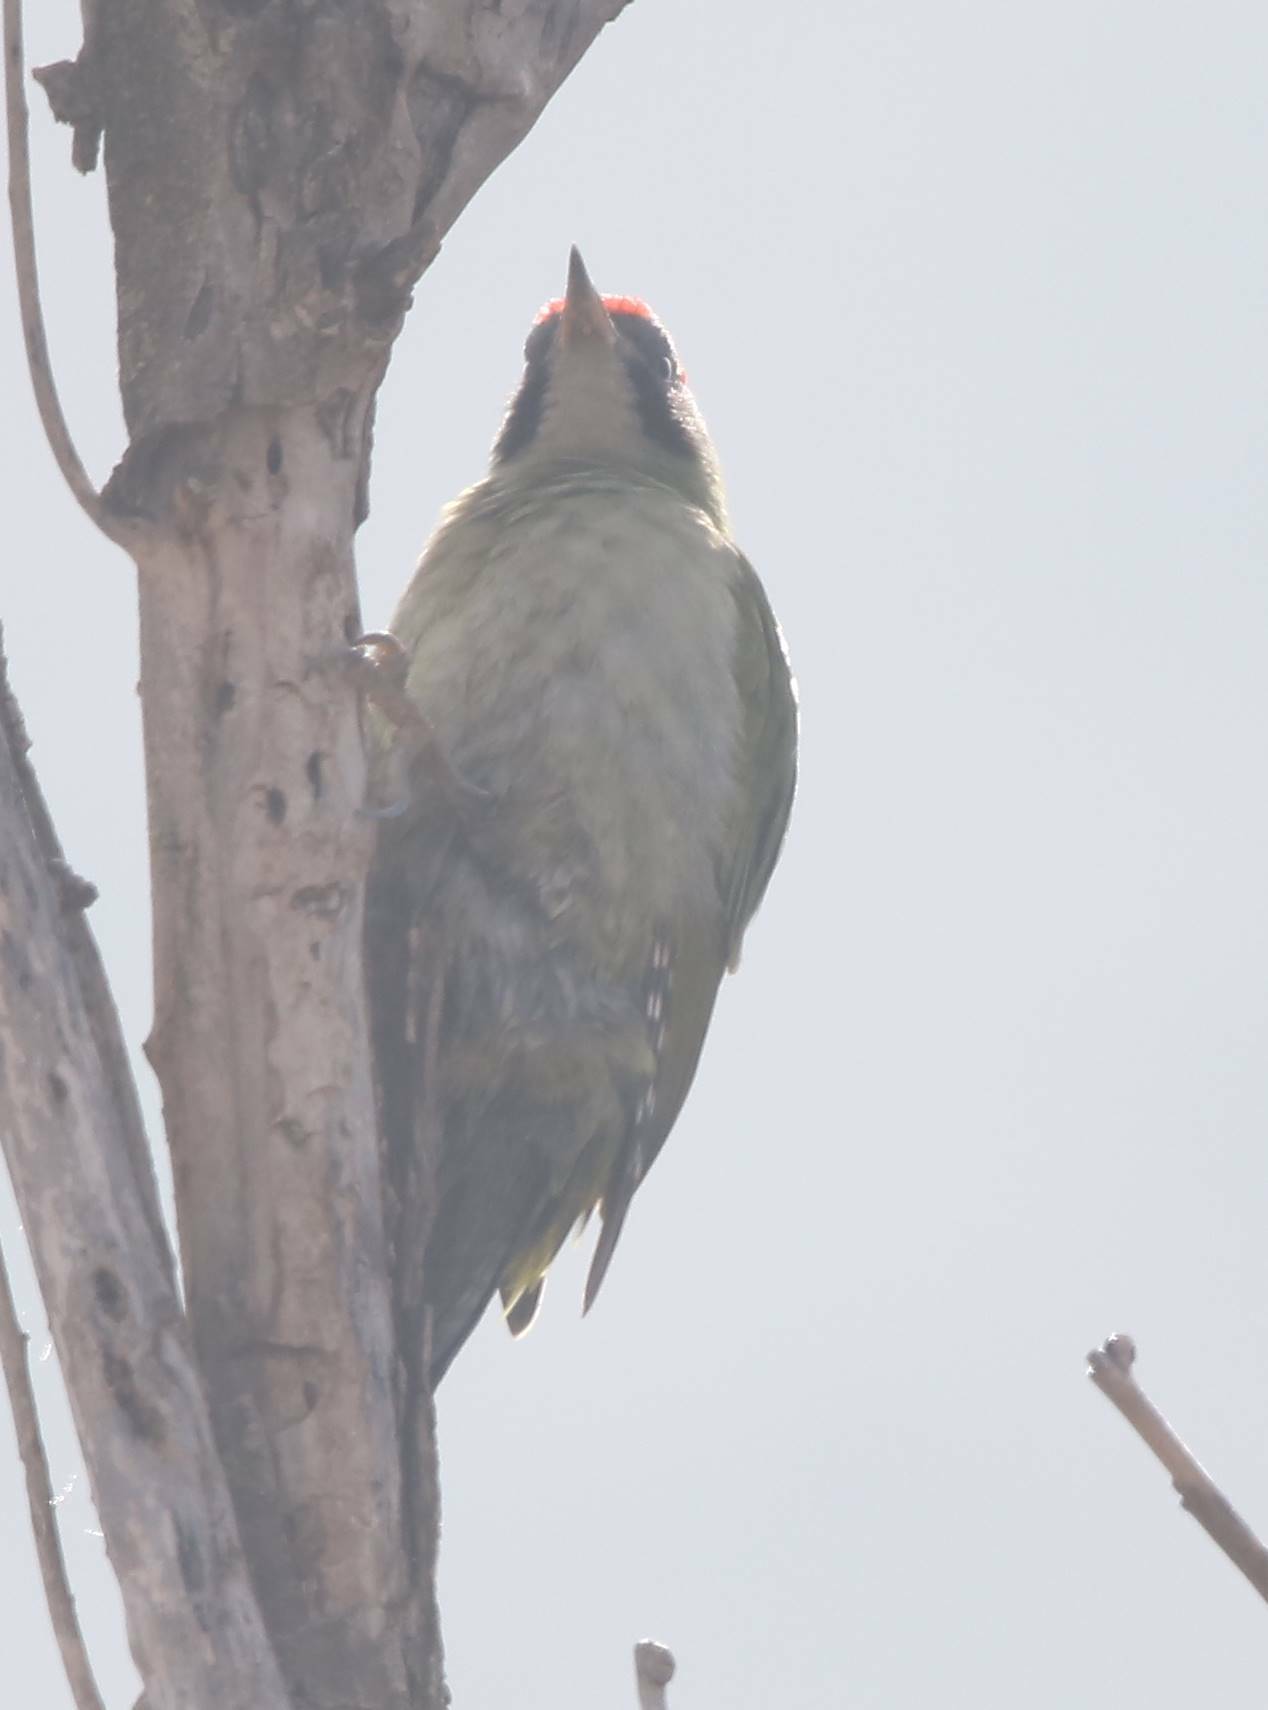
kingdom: Animalia
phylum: Chordata
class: Aves
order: Piciformes
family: Picidae
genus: Picus
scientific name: Picus vaillantii
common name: Levaillant's woodpecker
